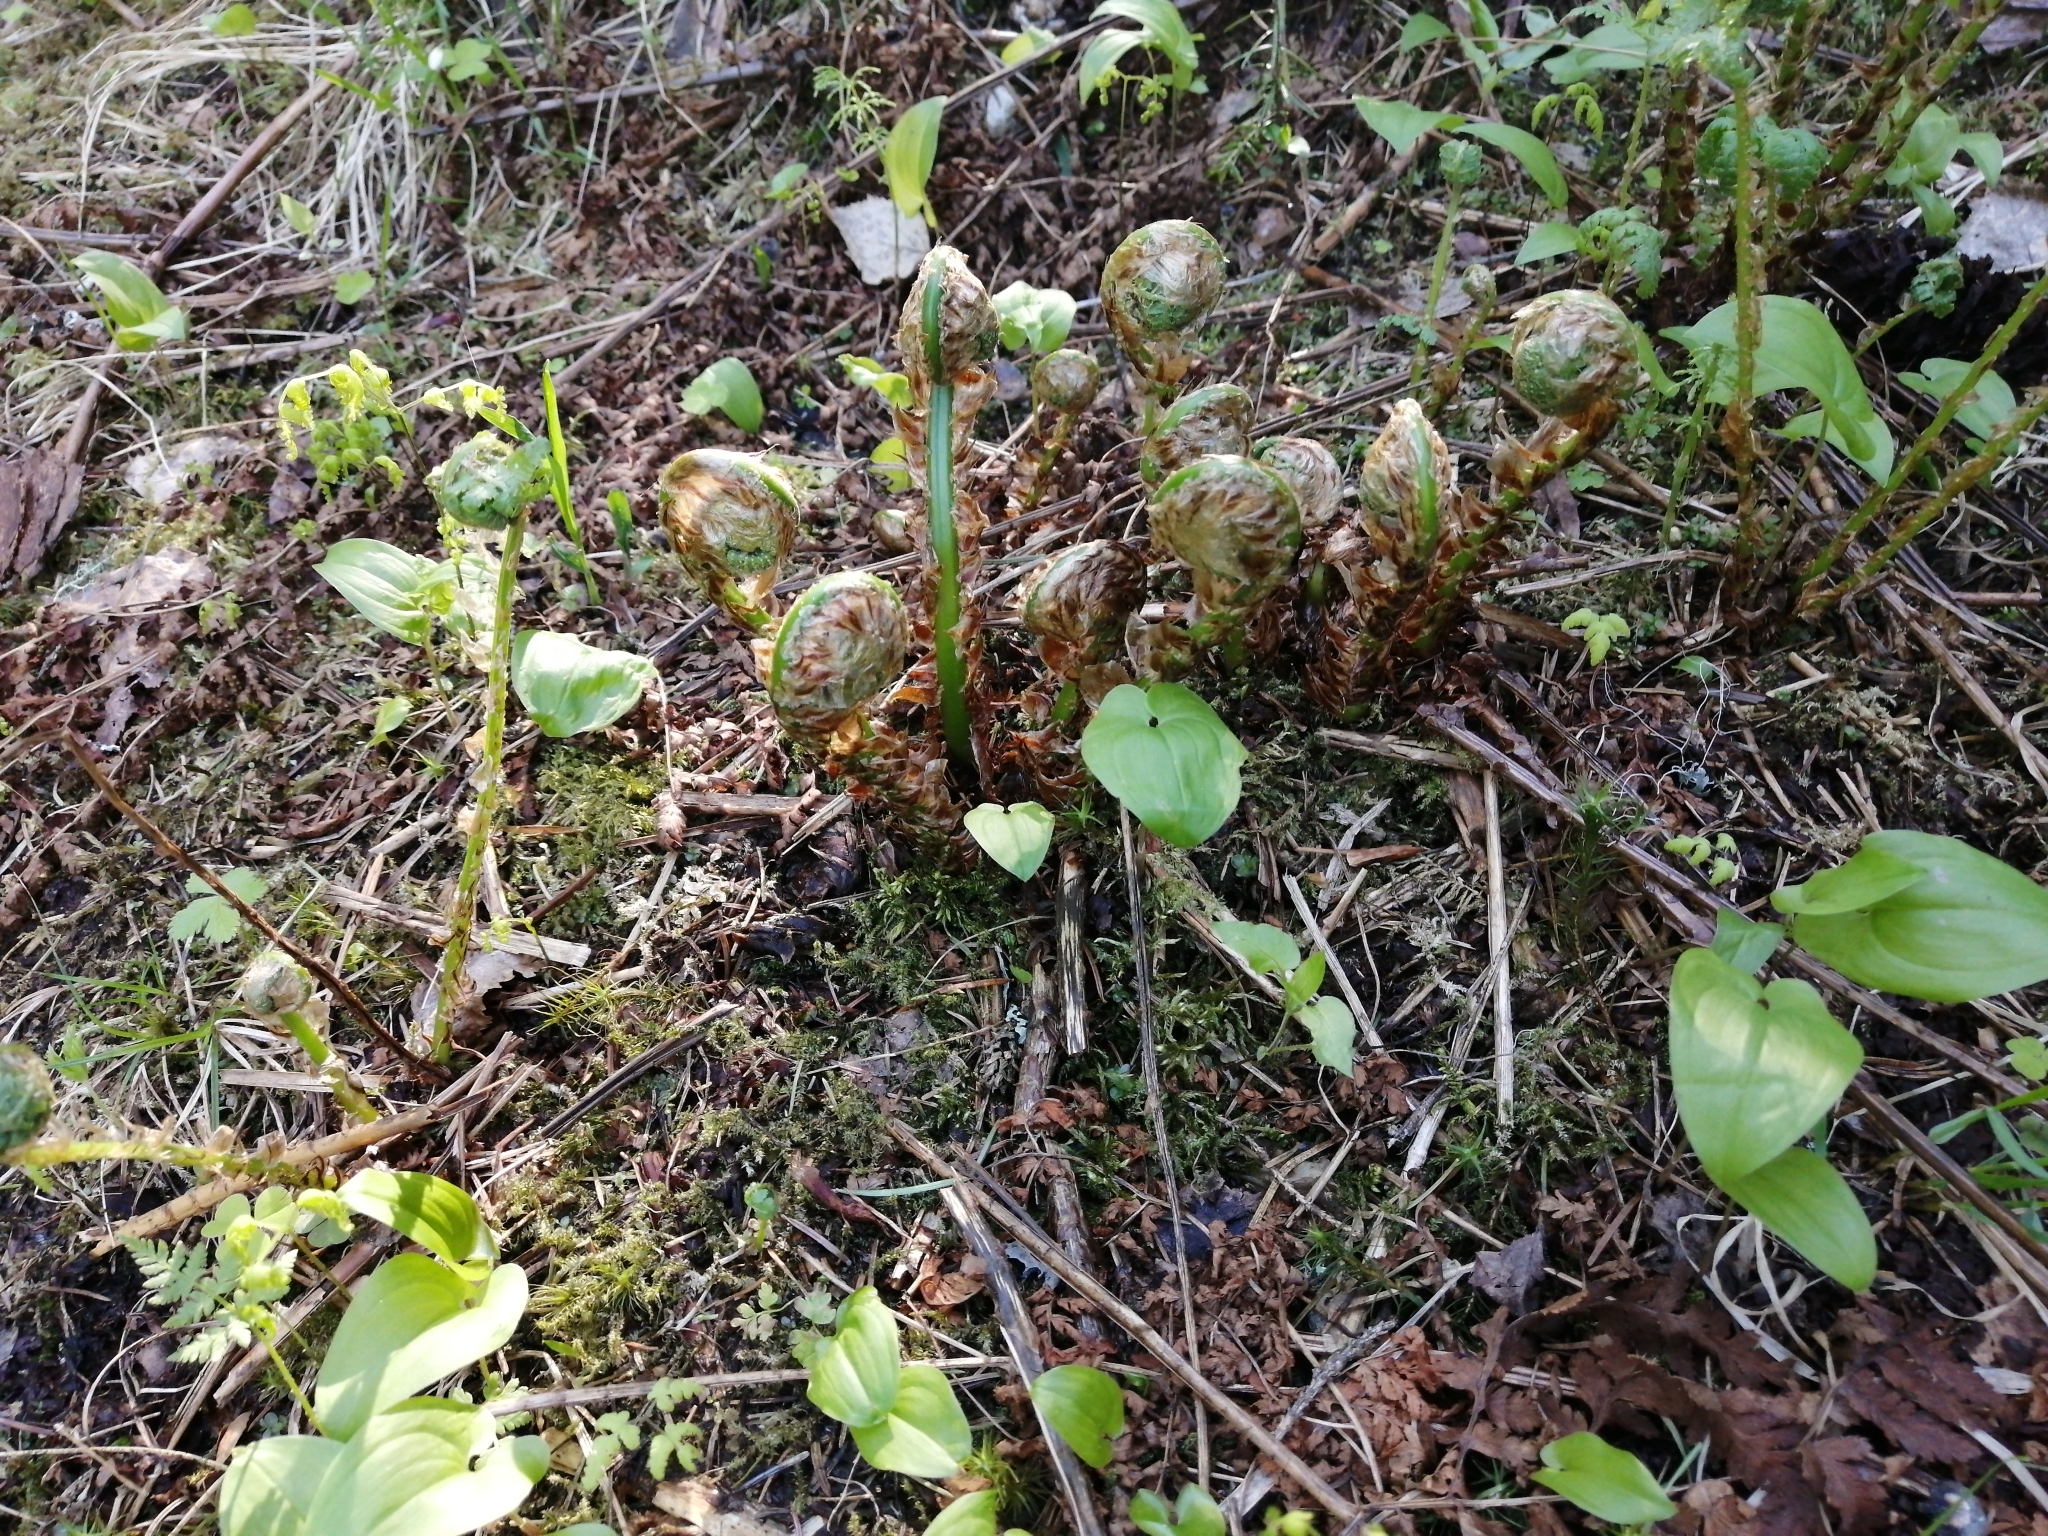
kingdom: Plantae
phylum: Tracheophyta
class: Polypodiopsida
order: Polypodiales
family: Dryopteridaceae
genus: Dryopteris
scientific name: Dryopteris filix-mas
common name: Male fern
